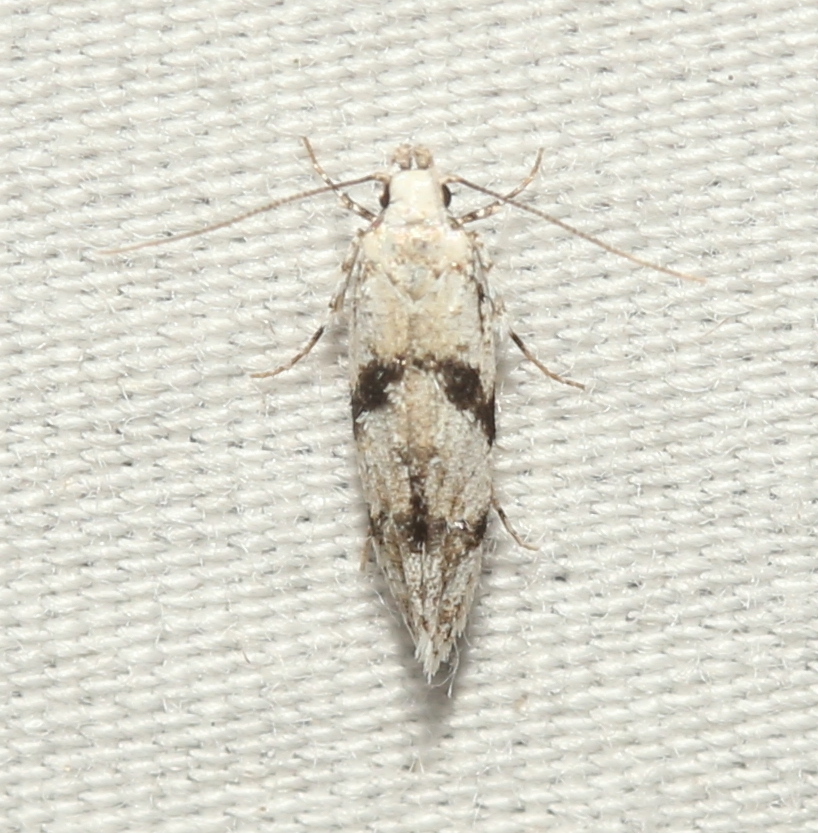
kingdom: Animalia
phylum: Arthropoda
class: Insecta
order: Lepidoptera
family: Gelechiidae
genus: Arogalea
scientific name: Arogalea cristifasciella
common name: White stripe-backed moth
